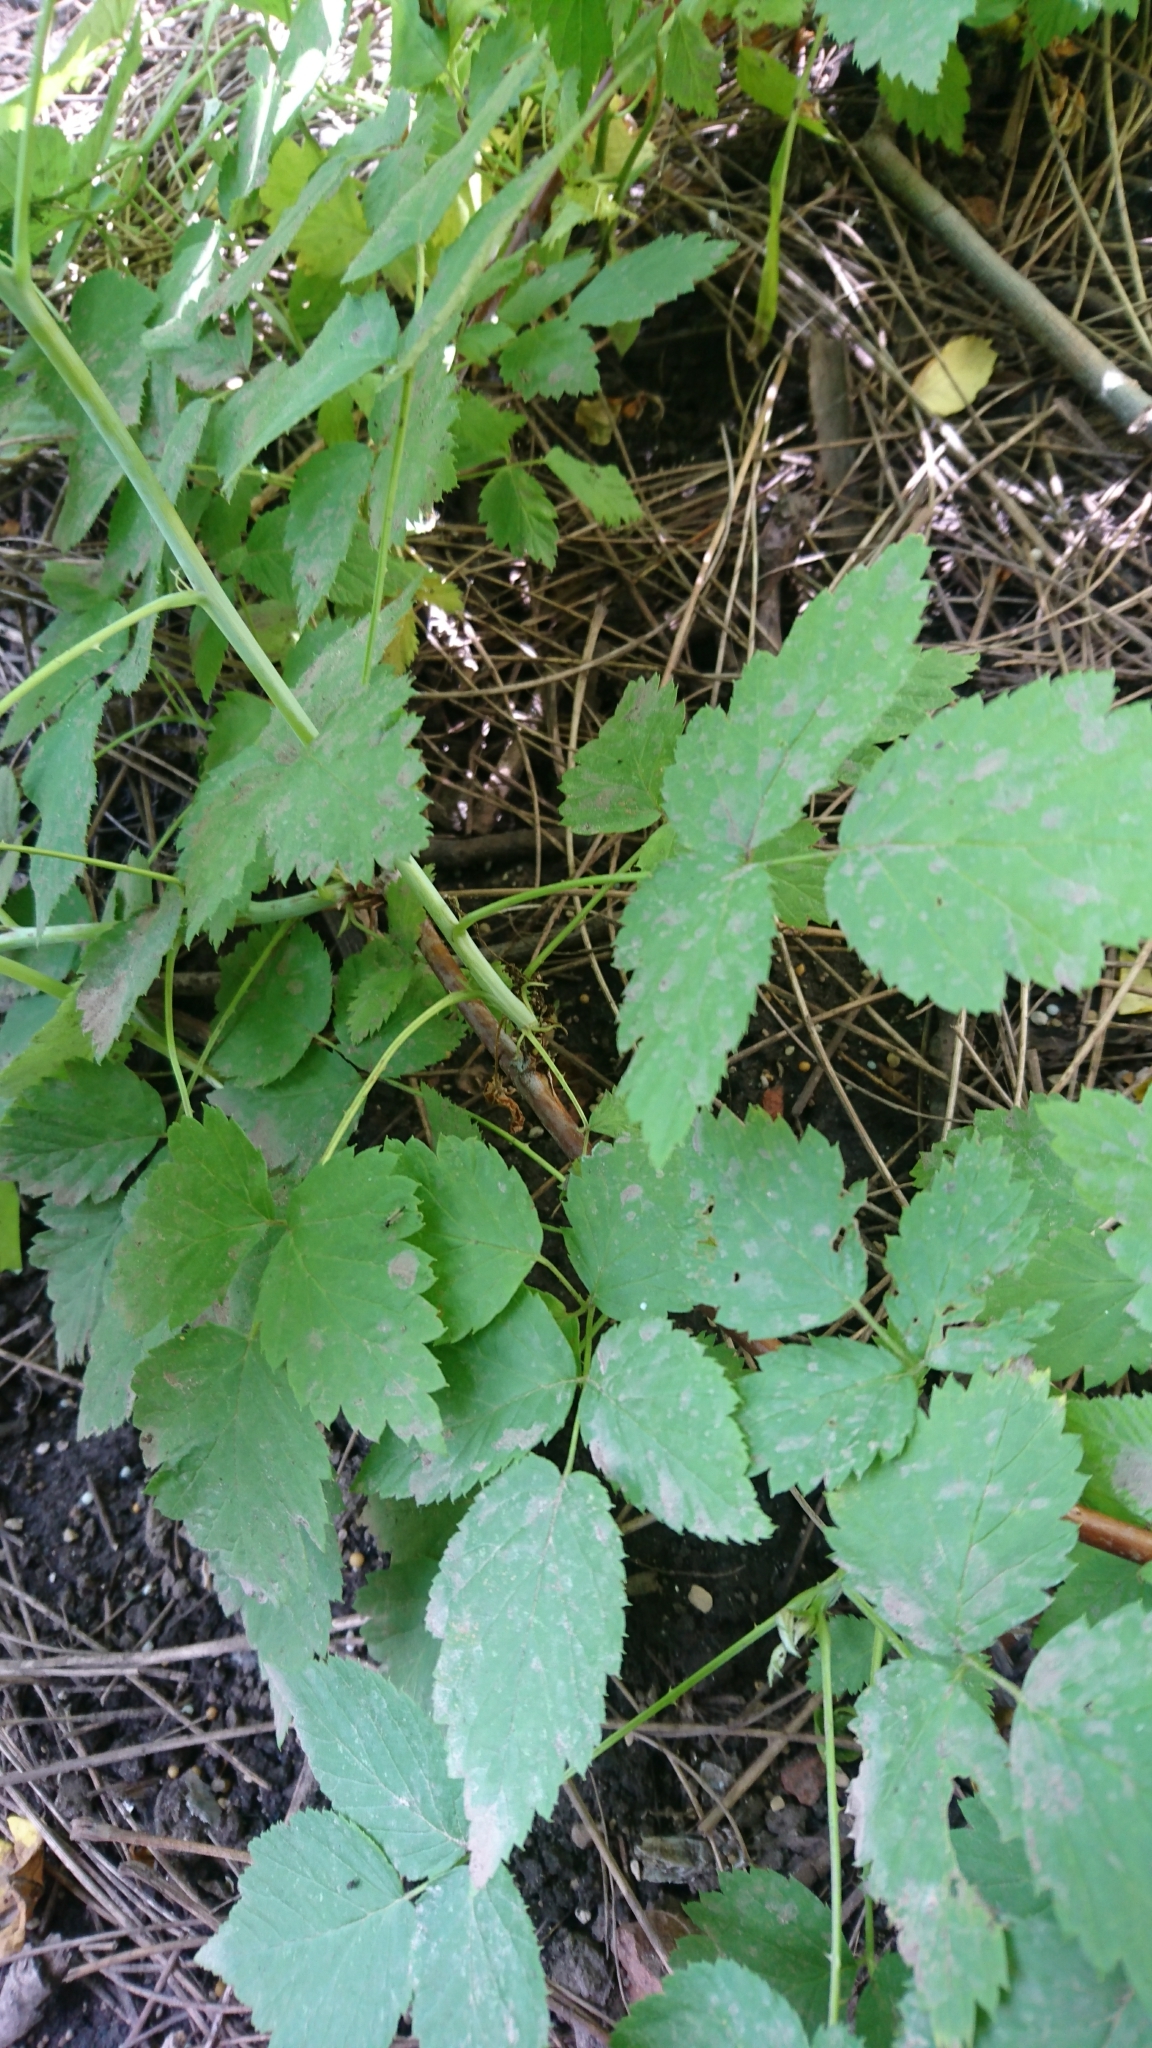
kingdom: Plantae
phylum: Tracheophyta
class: Magnoliopsida
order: Rosales
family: Rosaceae
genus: Rubus
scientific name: Rubus occidentalis
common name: Black raspberry
